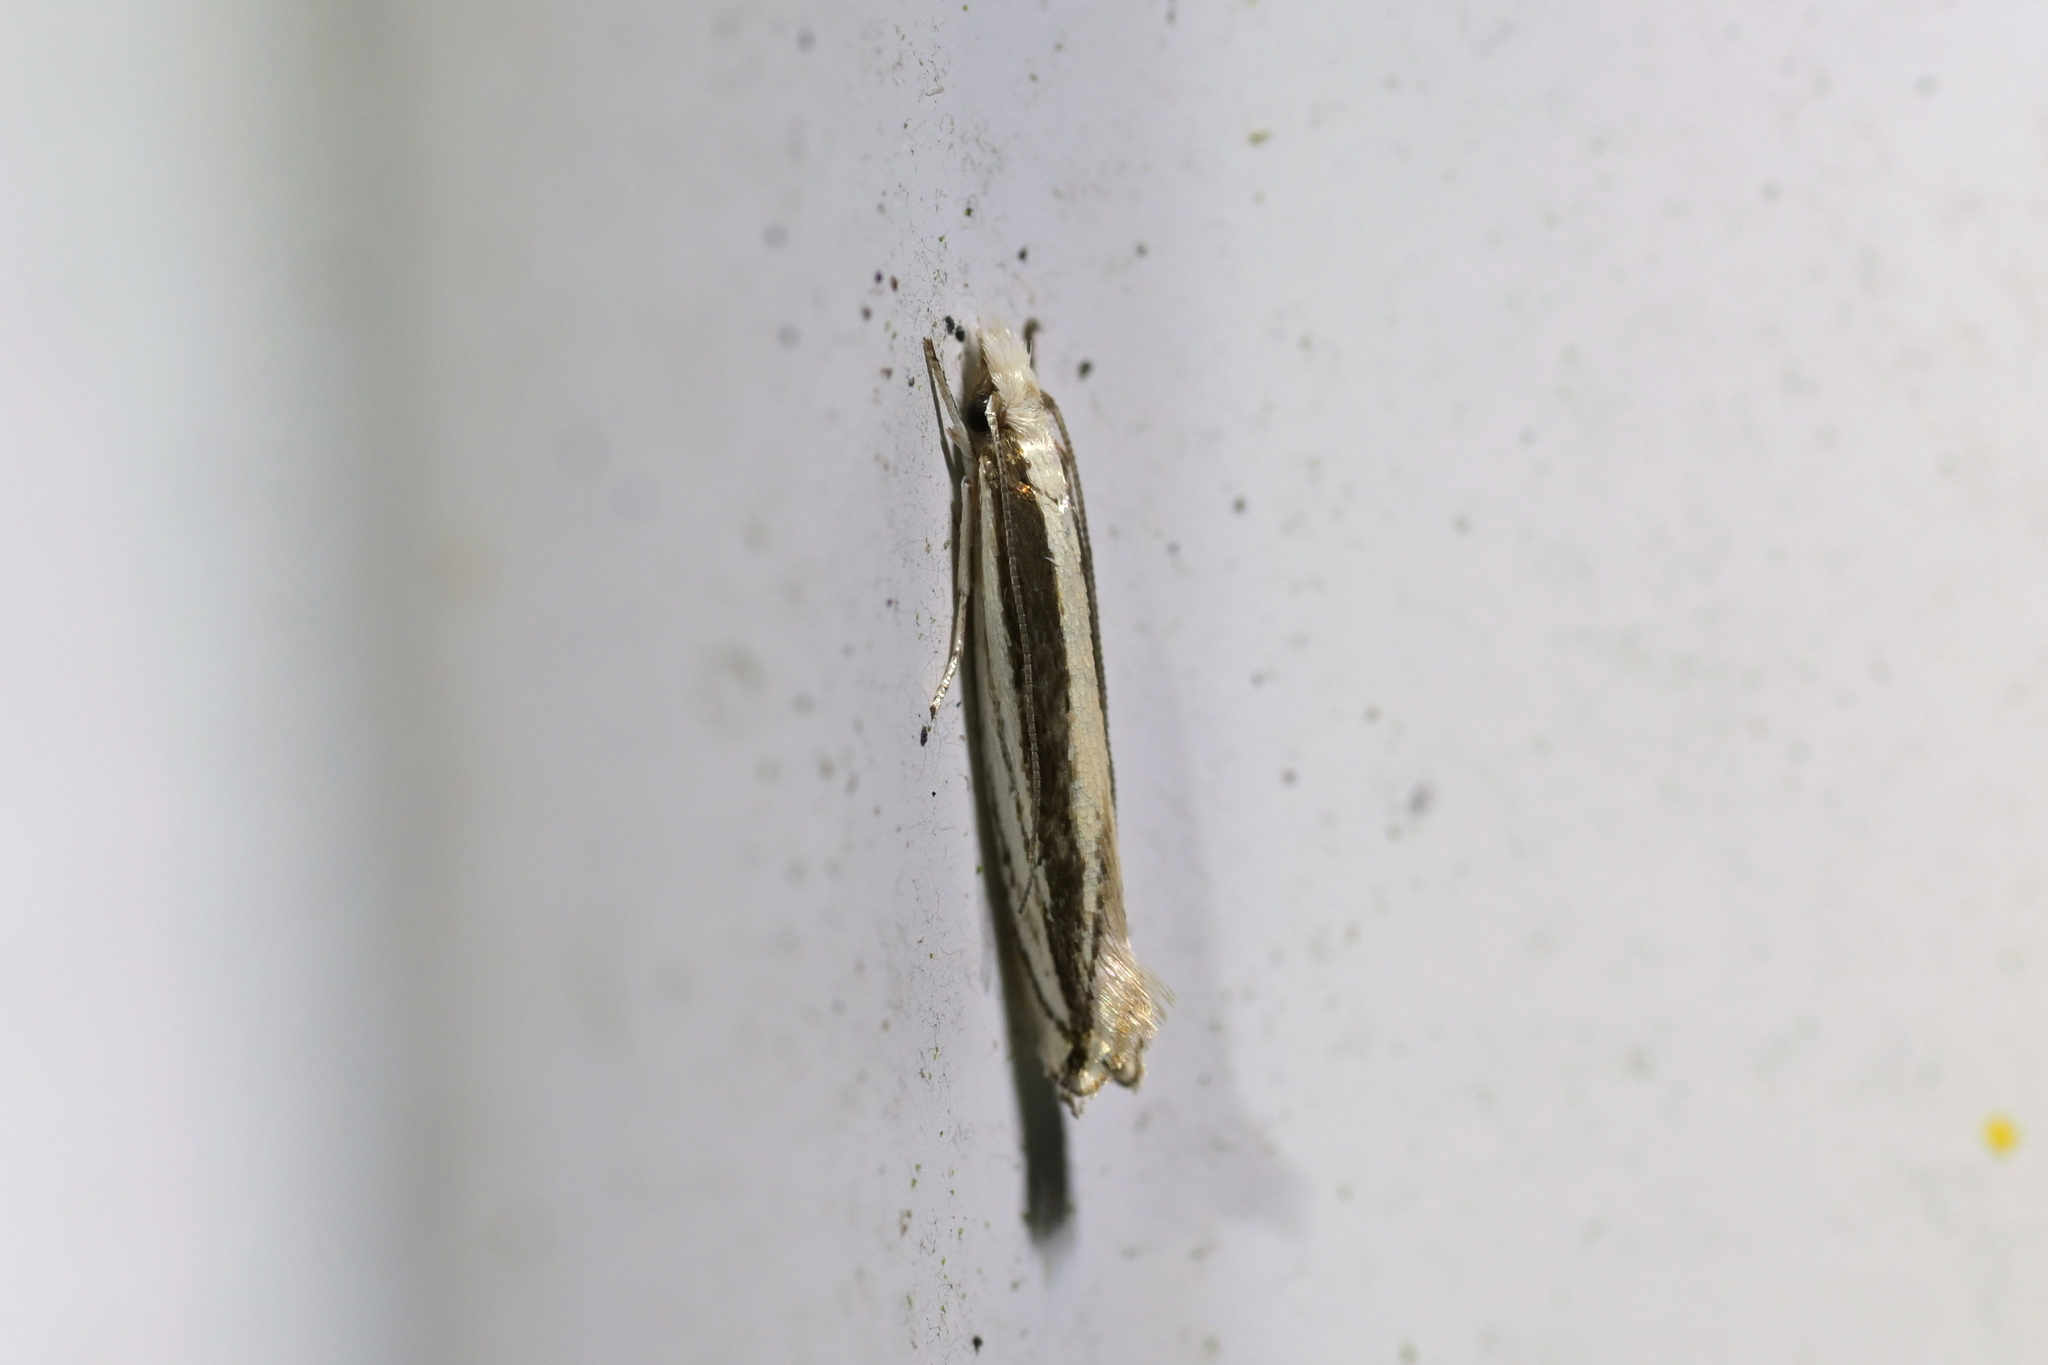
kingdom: Animalia
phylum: Arthropoda
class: Insecta
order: Lepidoptera
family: Tineidae
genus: Erechthias
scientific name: Erechthias stilbella
